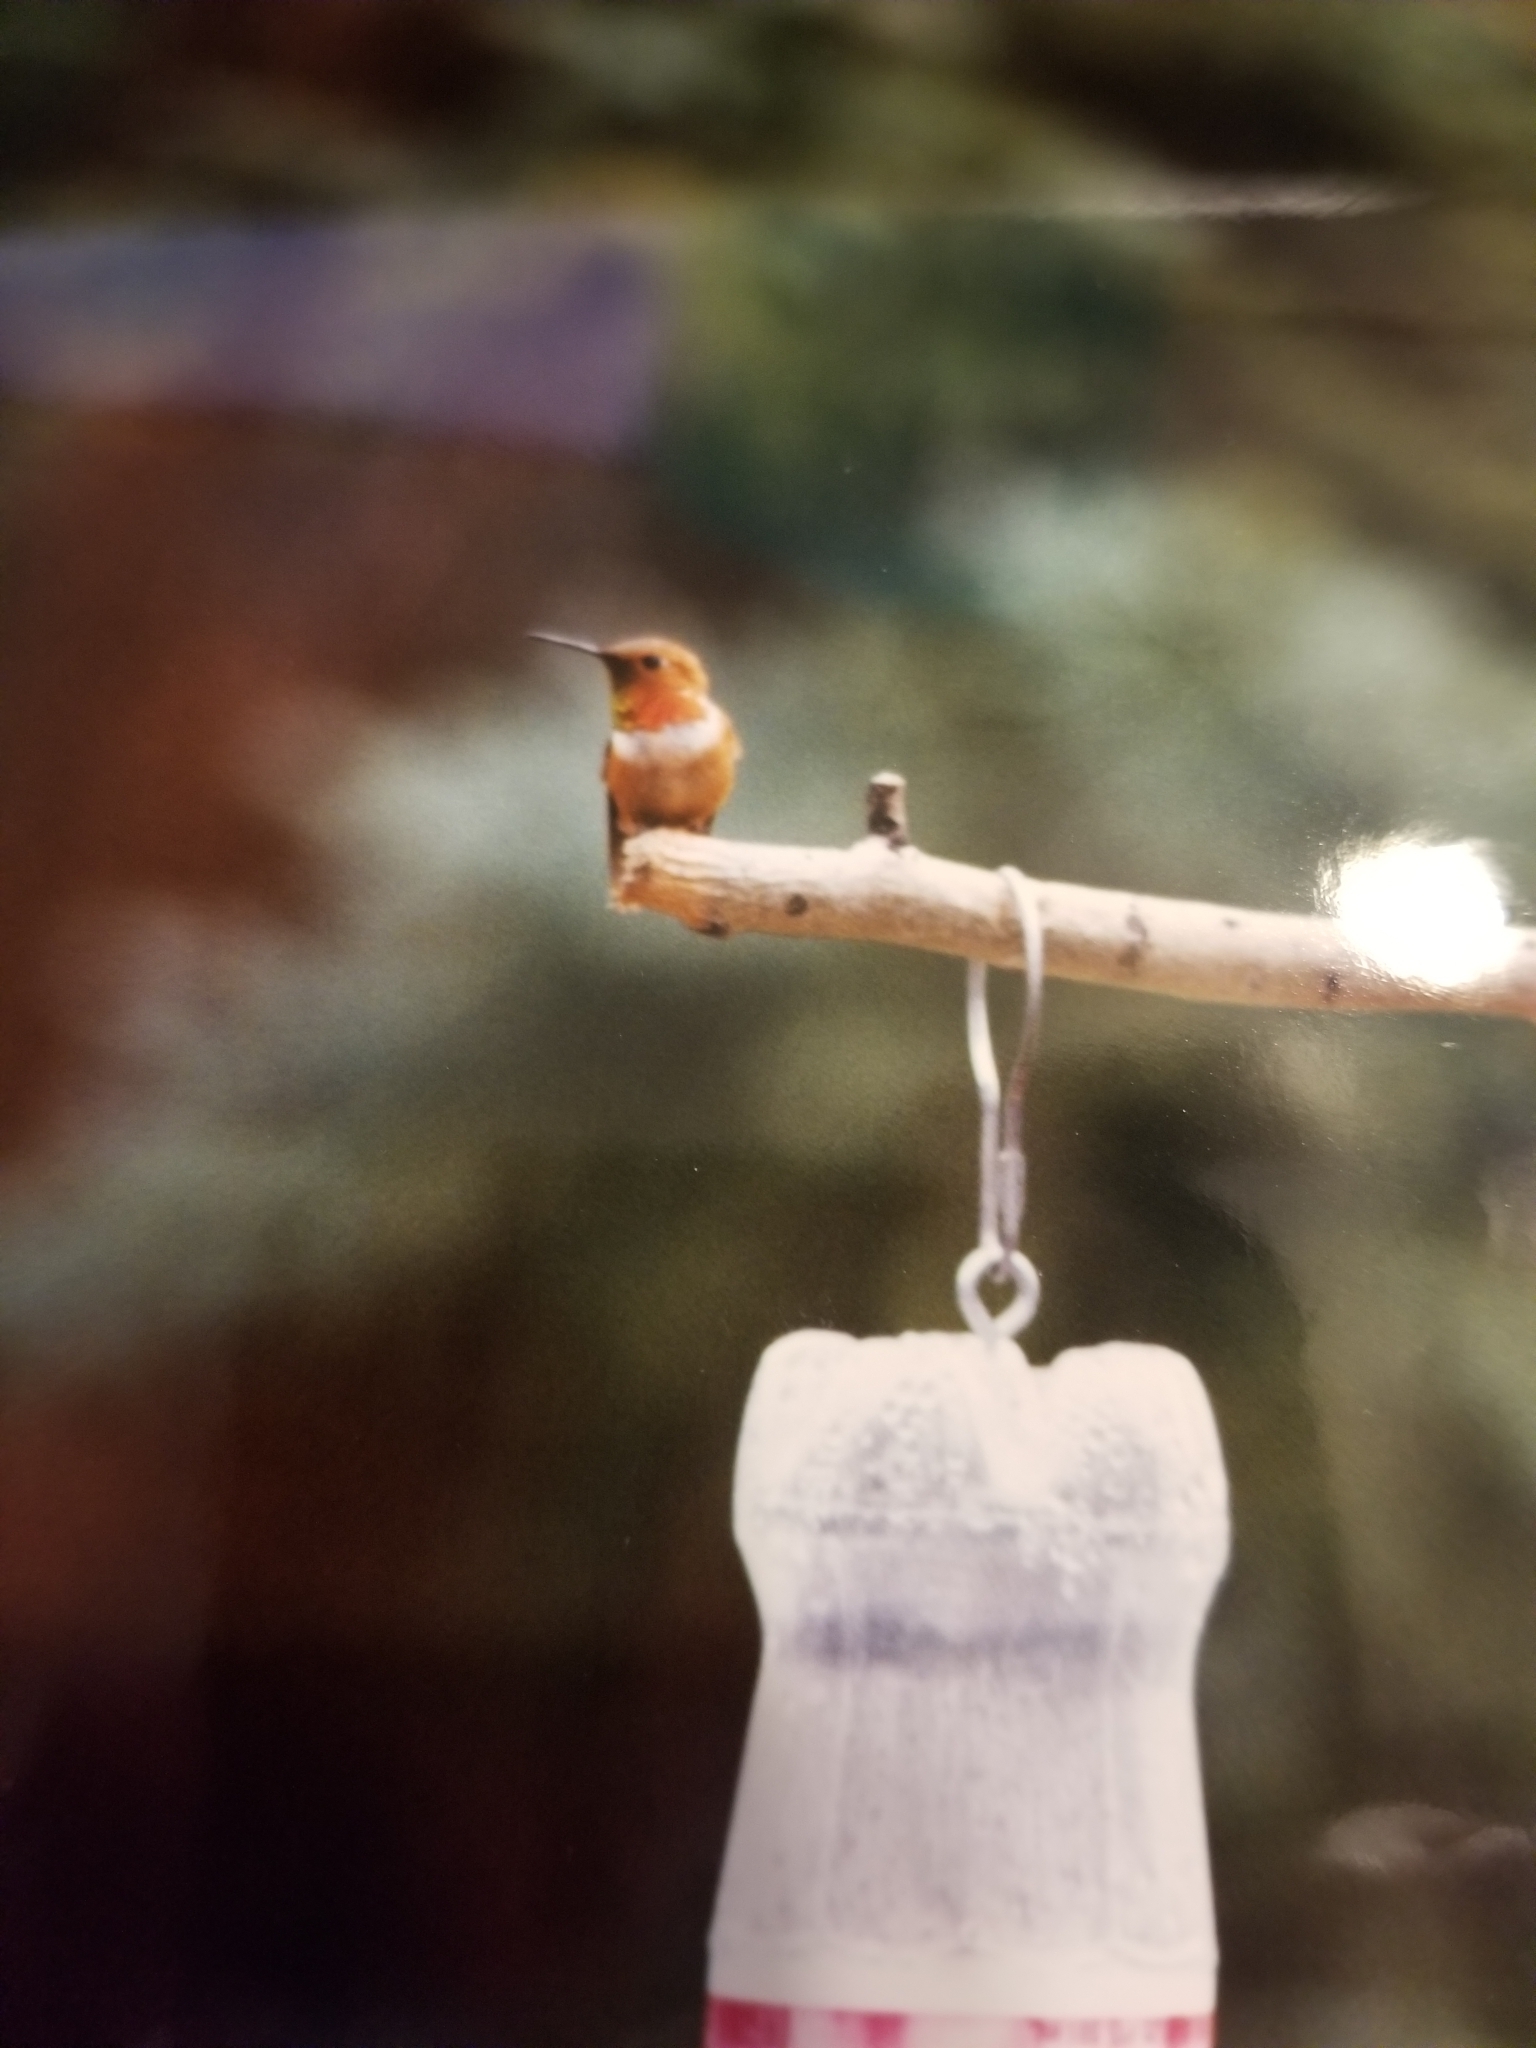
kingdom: Animalia
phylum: Chordata
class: Aves
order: Apodiformes
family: Trochilidae
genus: Selasphorus
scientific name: Selasphorus rufus
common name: Rufous hummingbird
